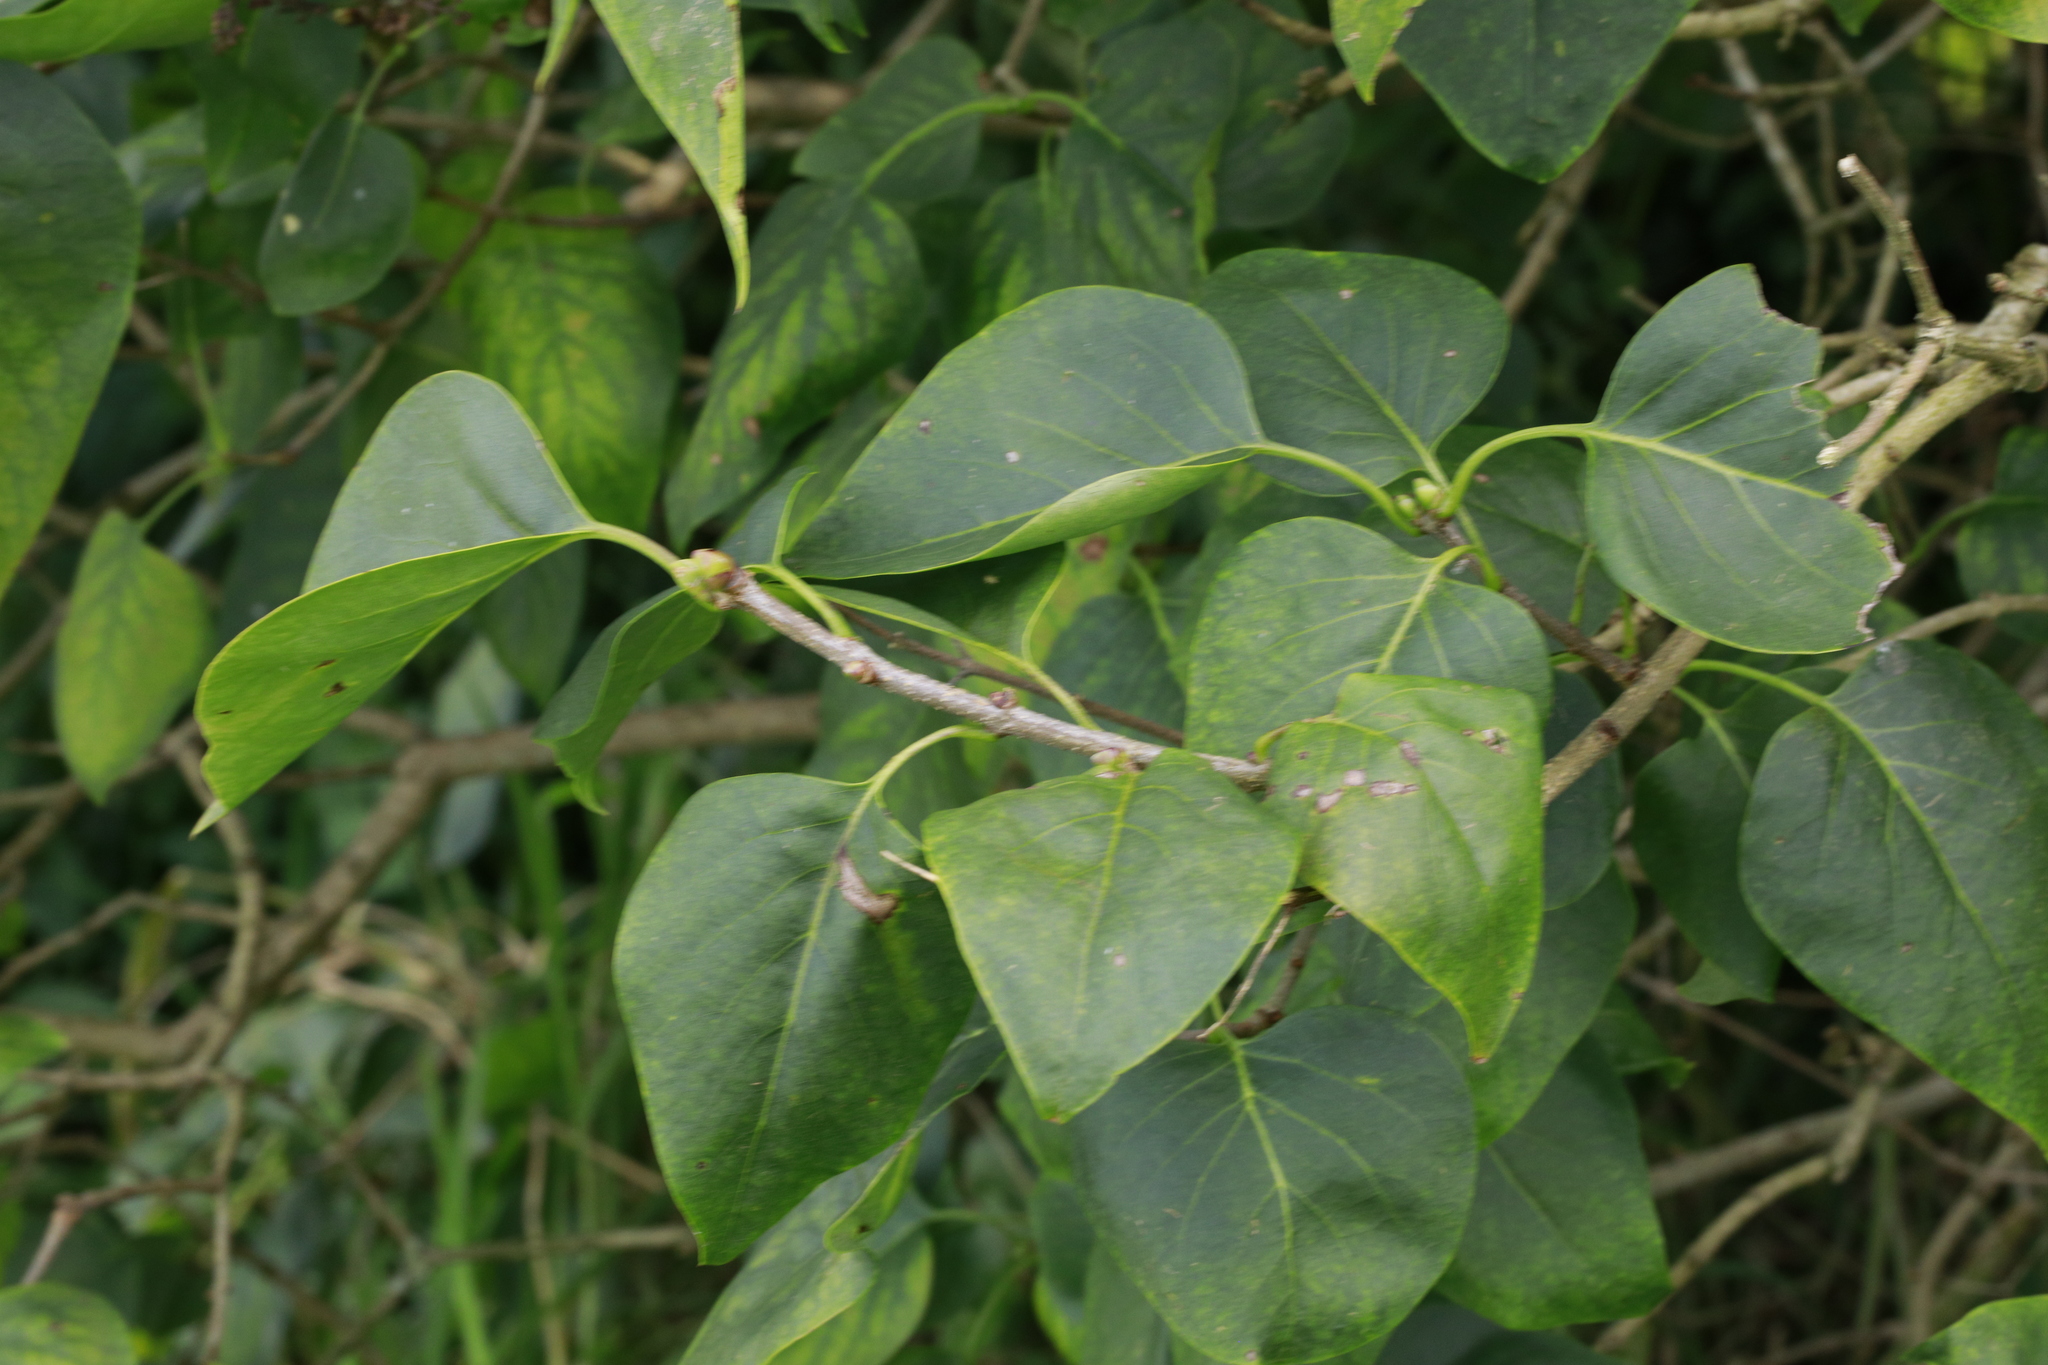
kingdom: Plantae
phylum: Tracheophyta
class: Magnoliopsida
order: Lamiales
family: Oleaceae
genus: Syringa
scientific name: Syringa vulgaris
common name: Common lilac
